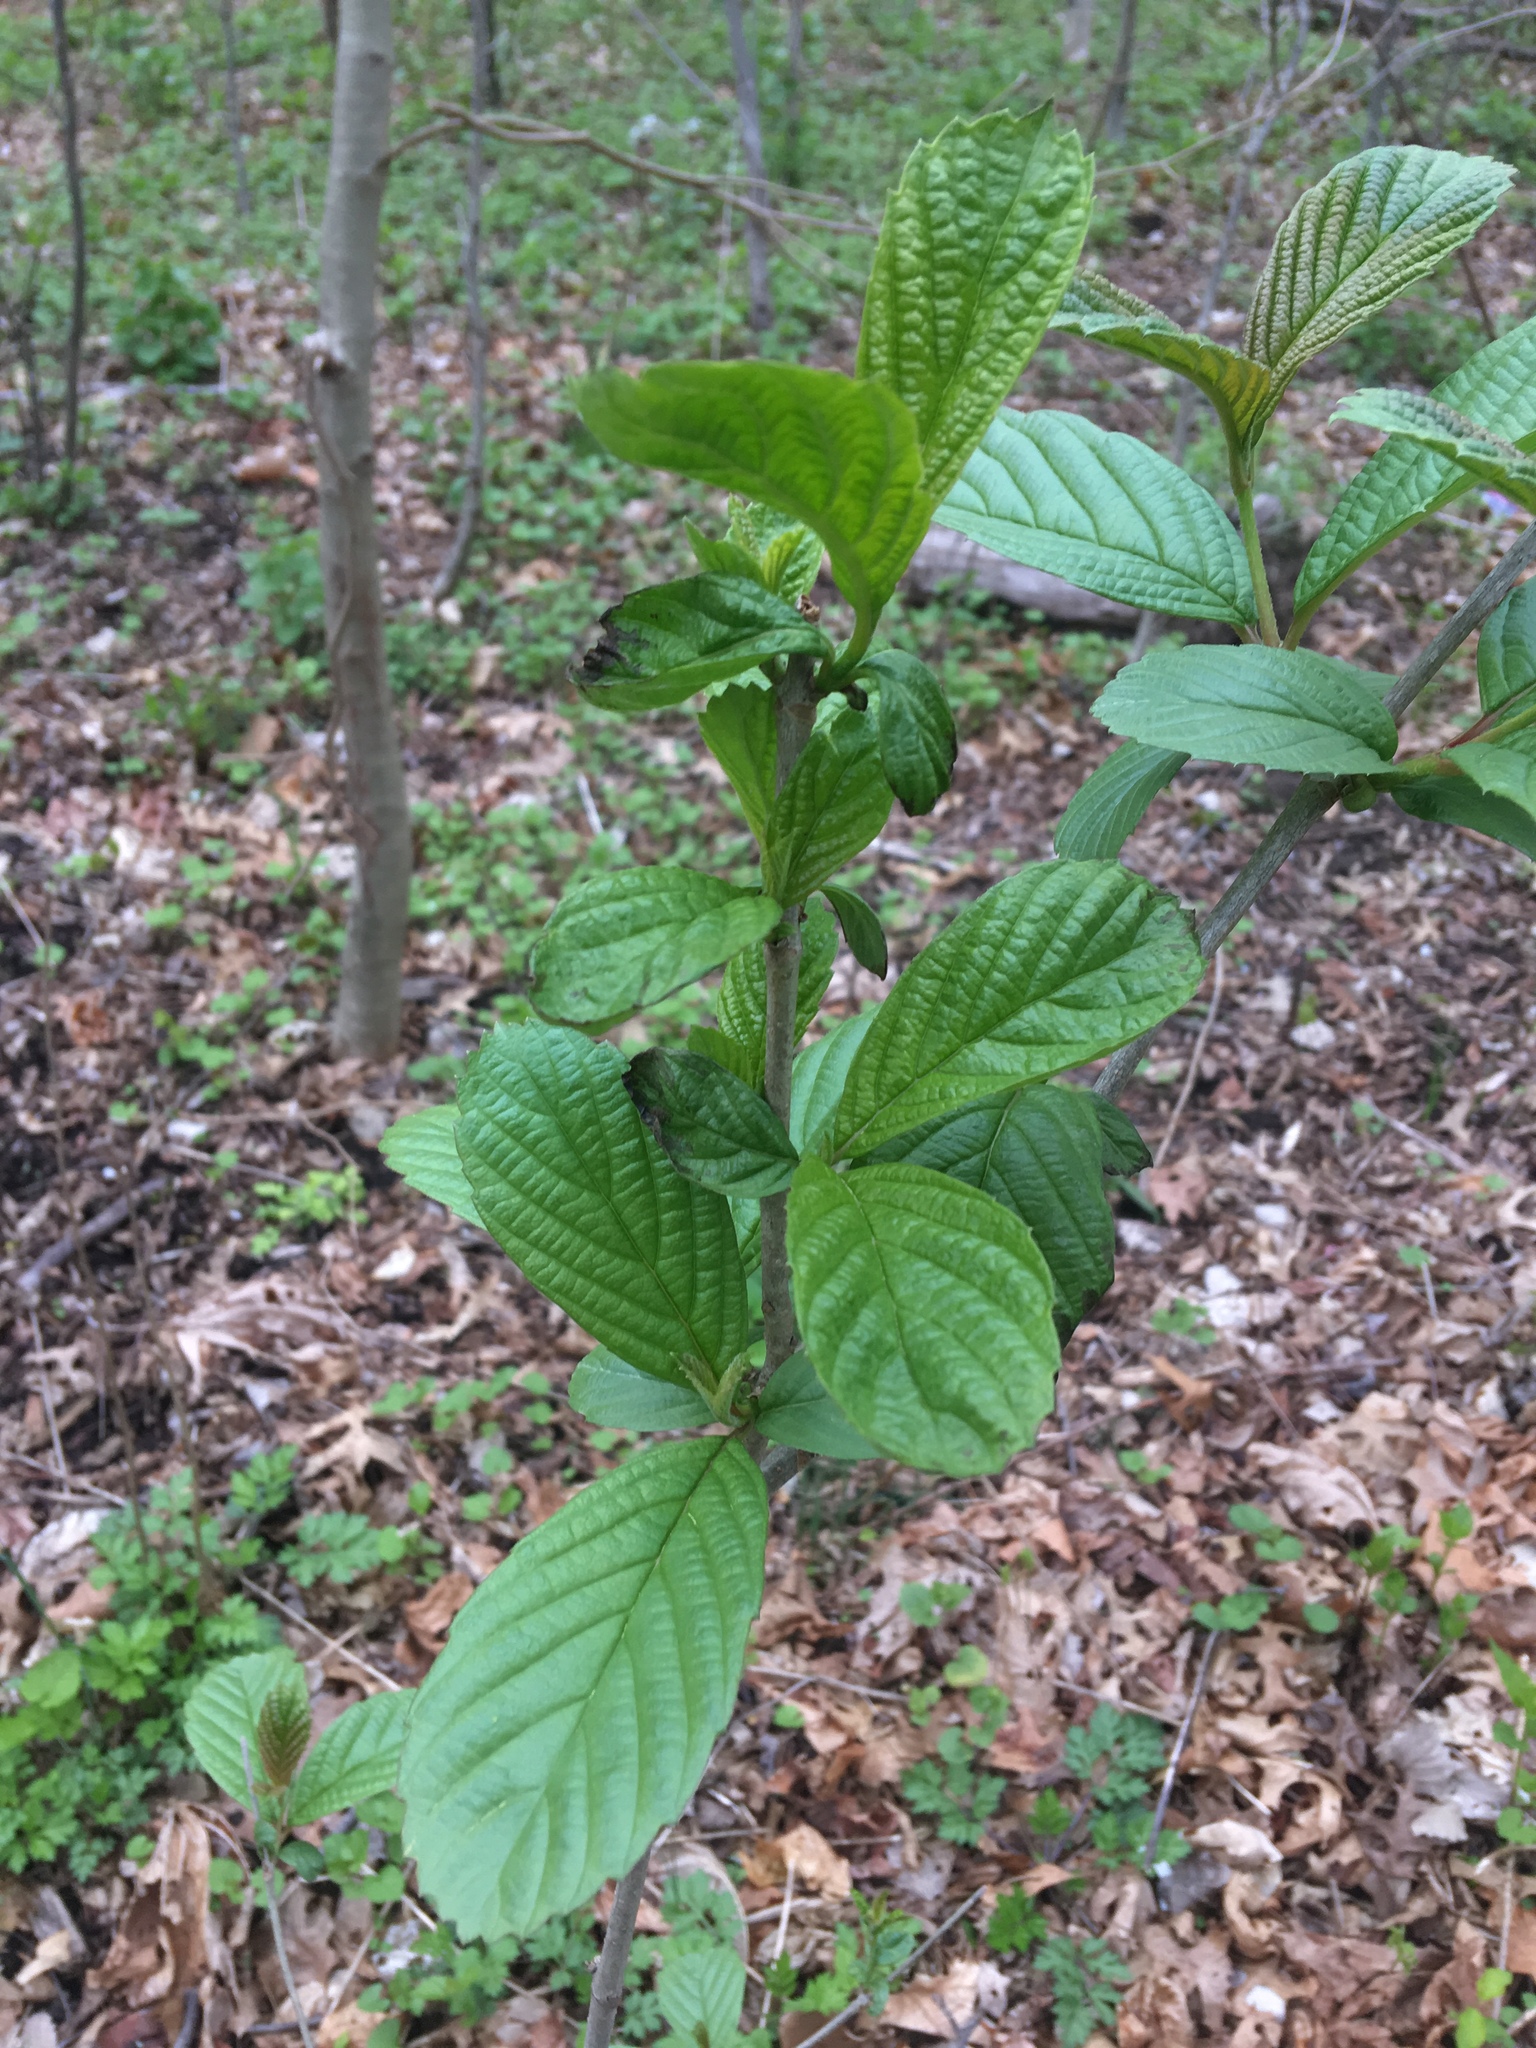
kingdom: Plantae
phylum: Tracheophyta
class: Magnoliopsida
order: Ericales
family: Clethraceae
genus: Clethra
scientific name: Clethra alnifolia
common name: Sweet pepperbush
